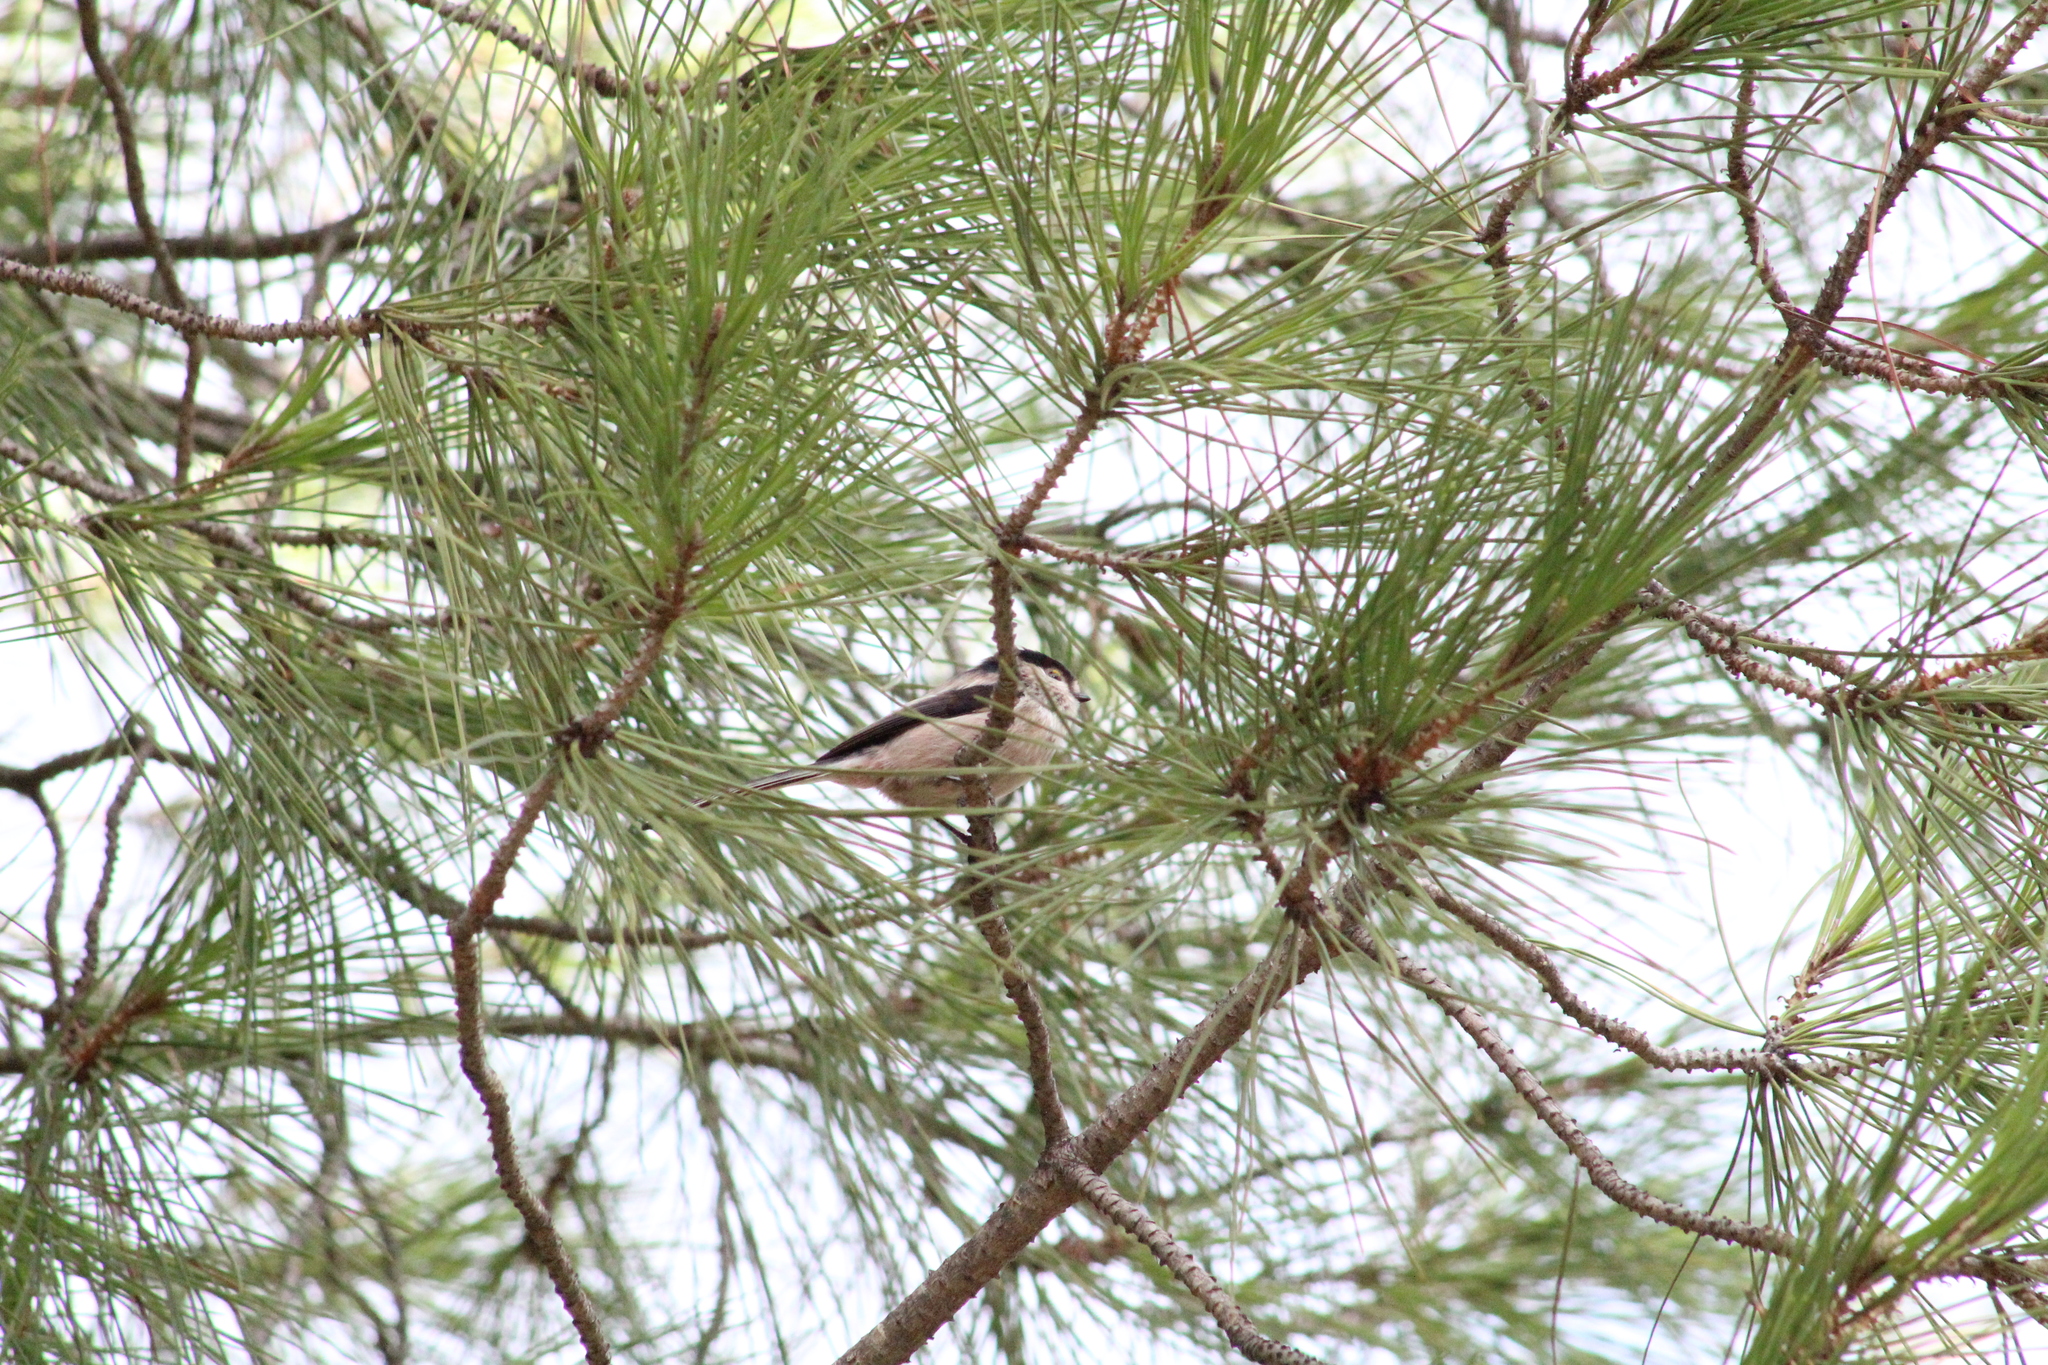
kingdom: Animalia
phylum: Chordata
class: Aves
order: Passeriformes
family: Aegithalidae
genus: Aegithalos
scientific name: Aegithalos caudatus
